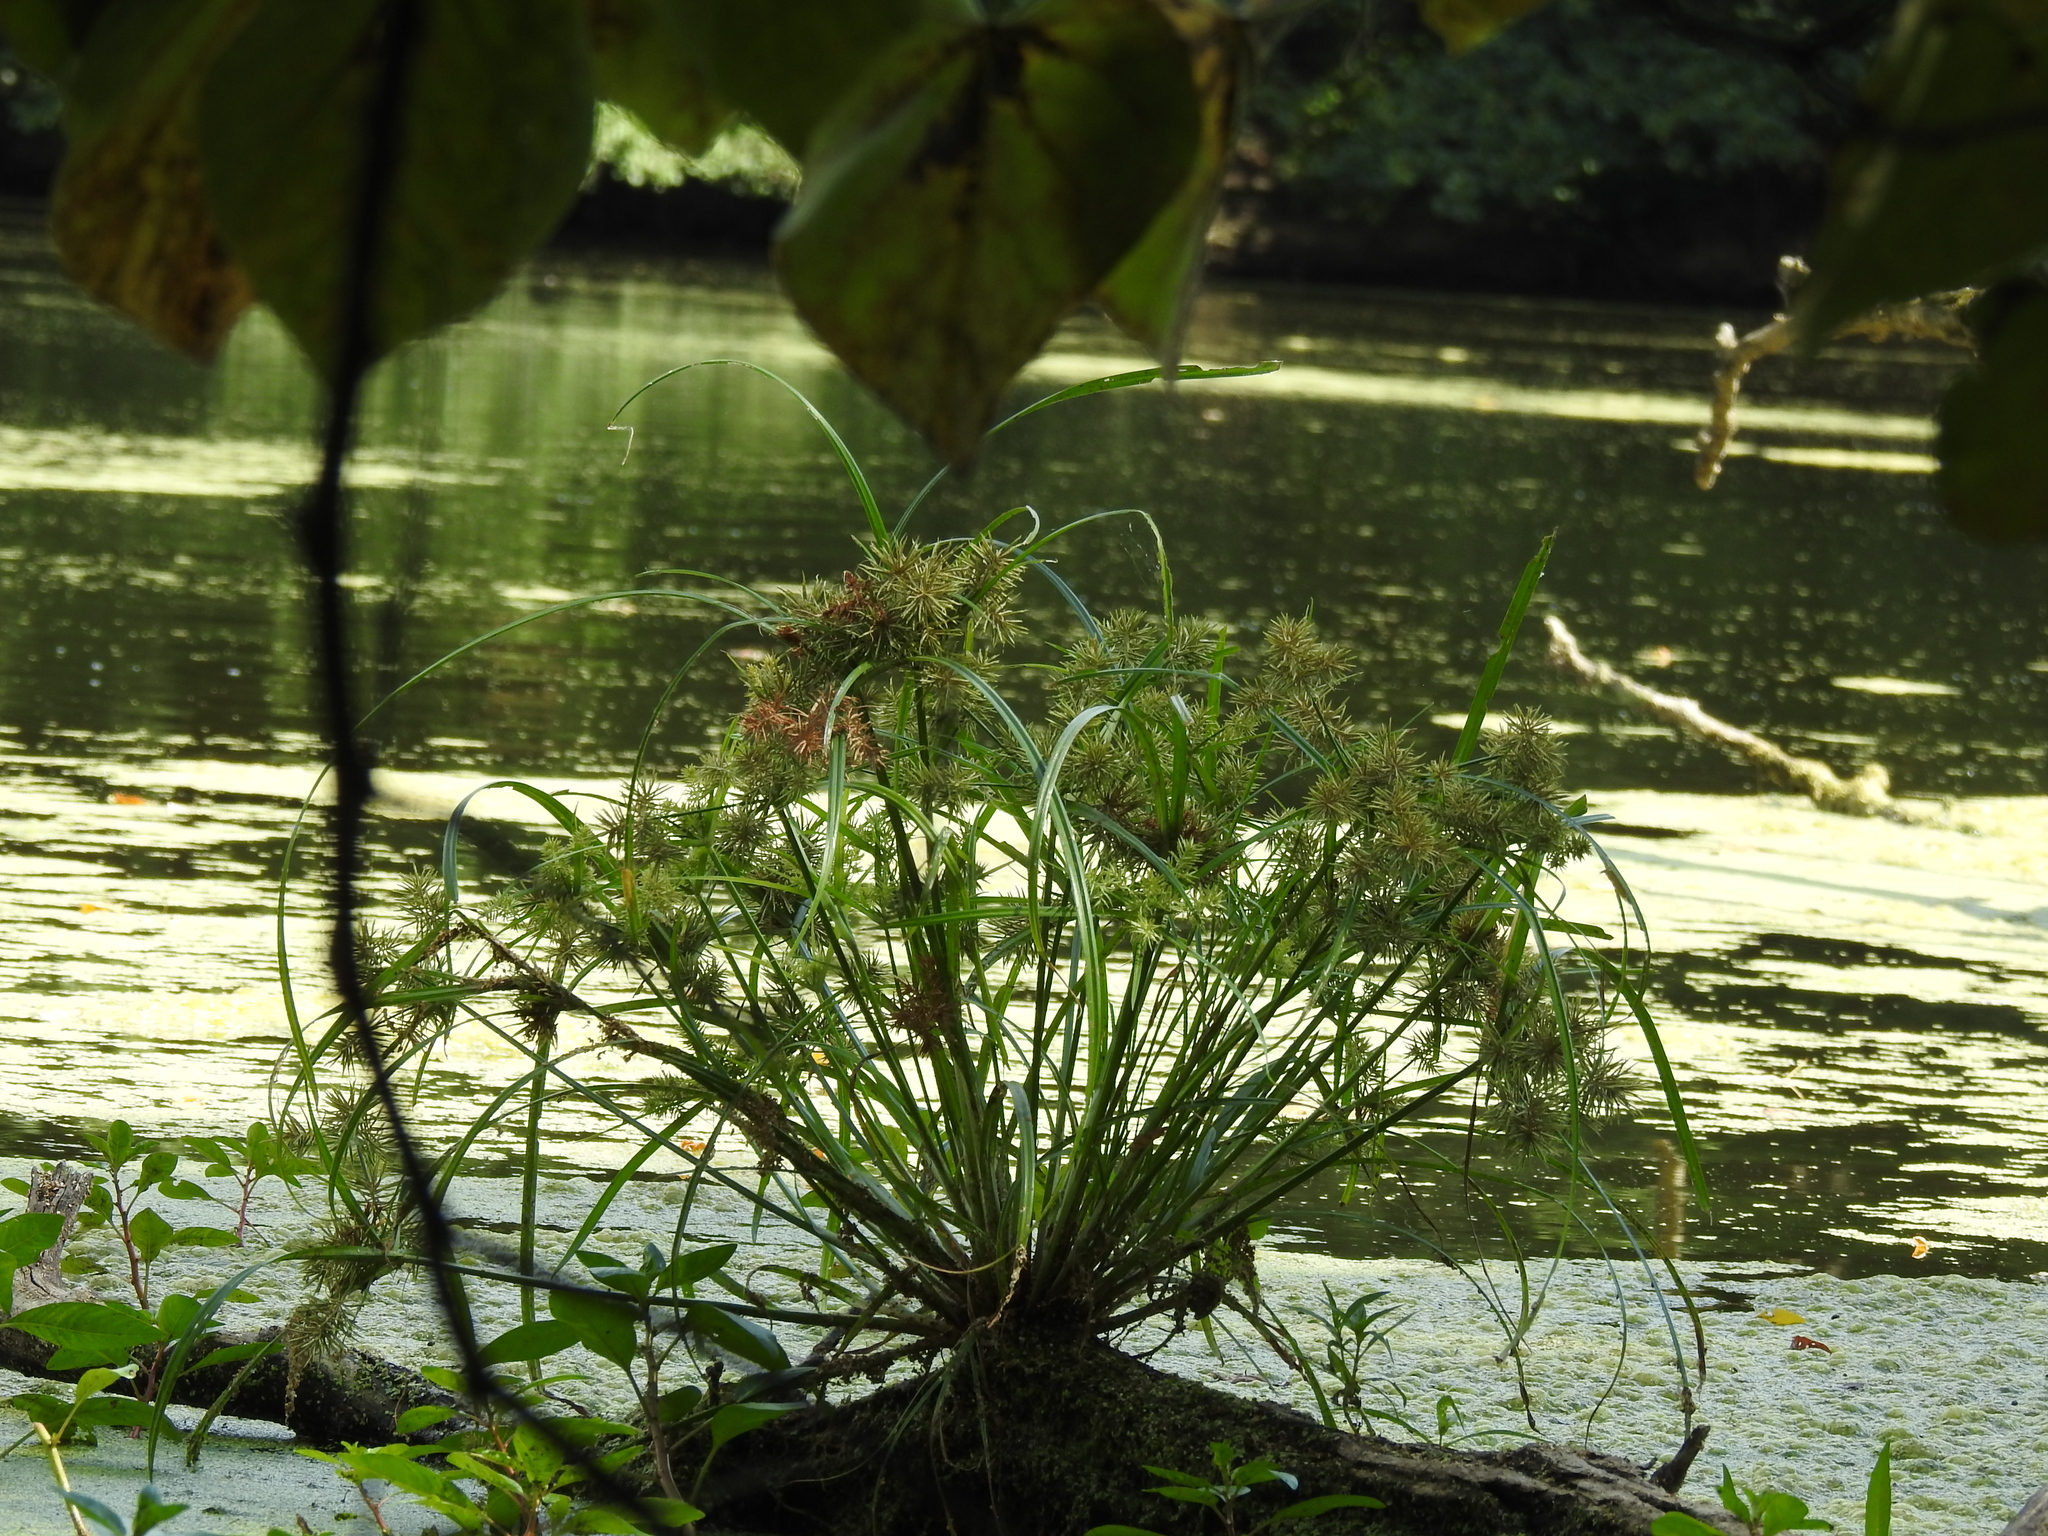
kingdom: Plantae
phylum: Tracheophyta
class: Liliopsida
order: Poales
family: Cyperaceae
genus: Cyperus
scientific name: Cyperus odoratus
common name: Fragrant flatsedge
